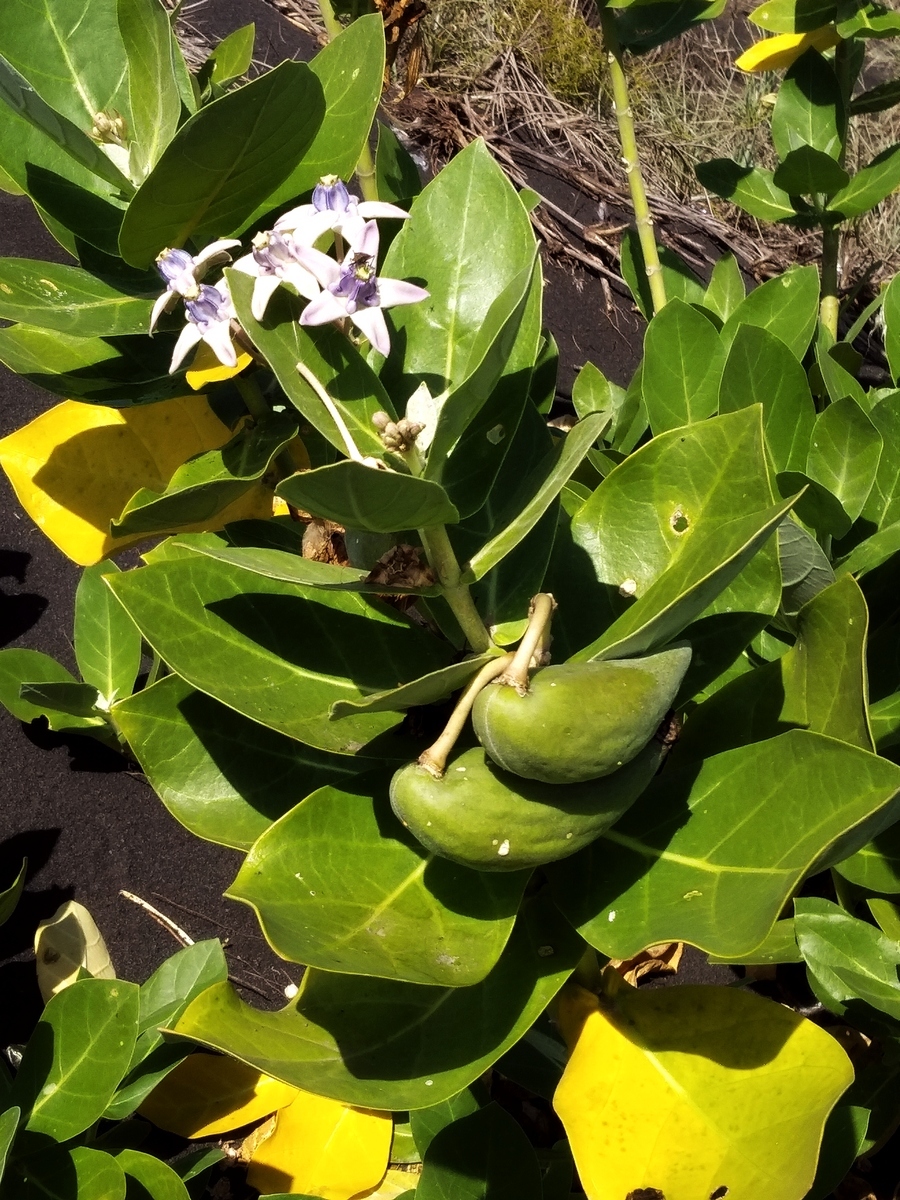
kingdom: Plantae
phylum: Tracheophyta
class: Magnoliopsida
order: Gentianales
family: Apocynaceae
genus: Calotropis
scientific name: Calotropis gigantea
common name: Crown flower
